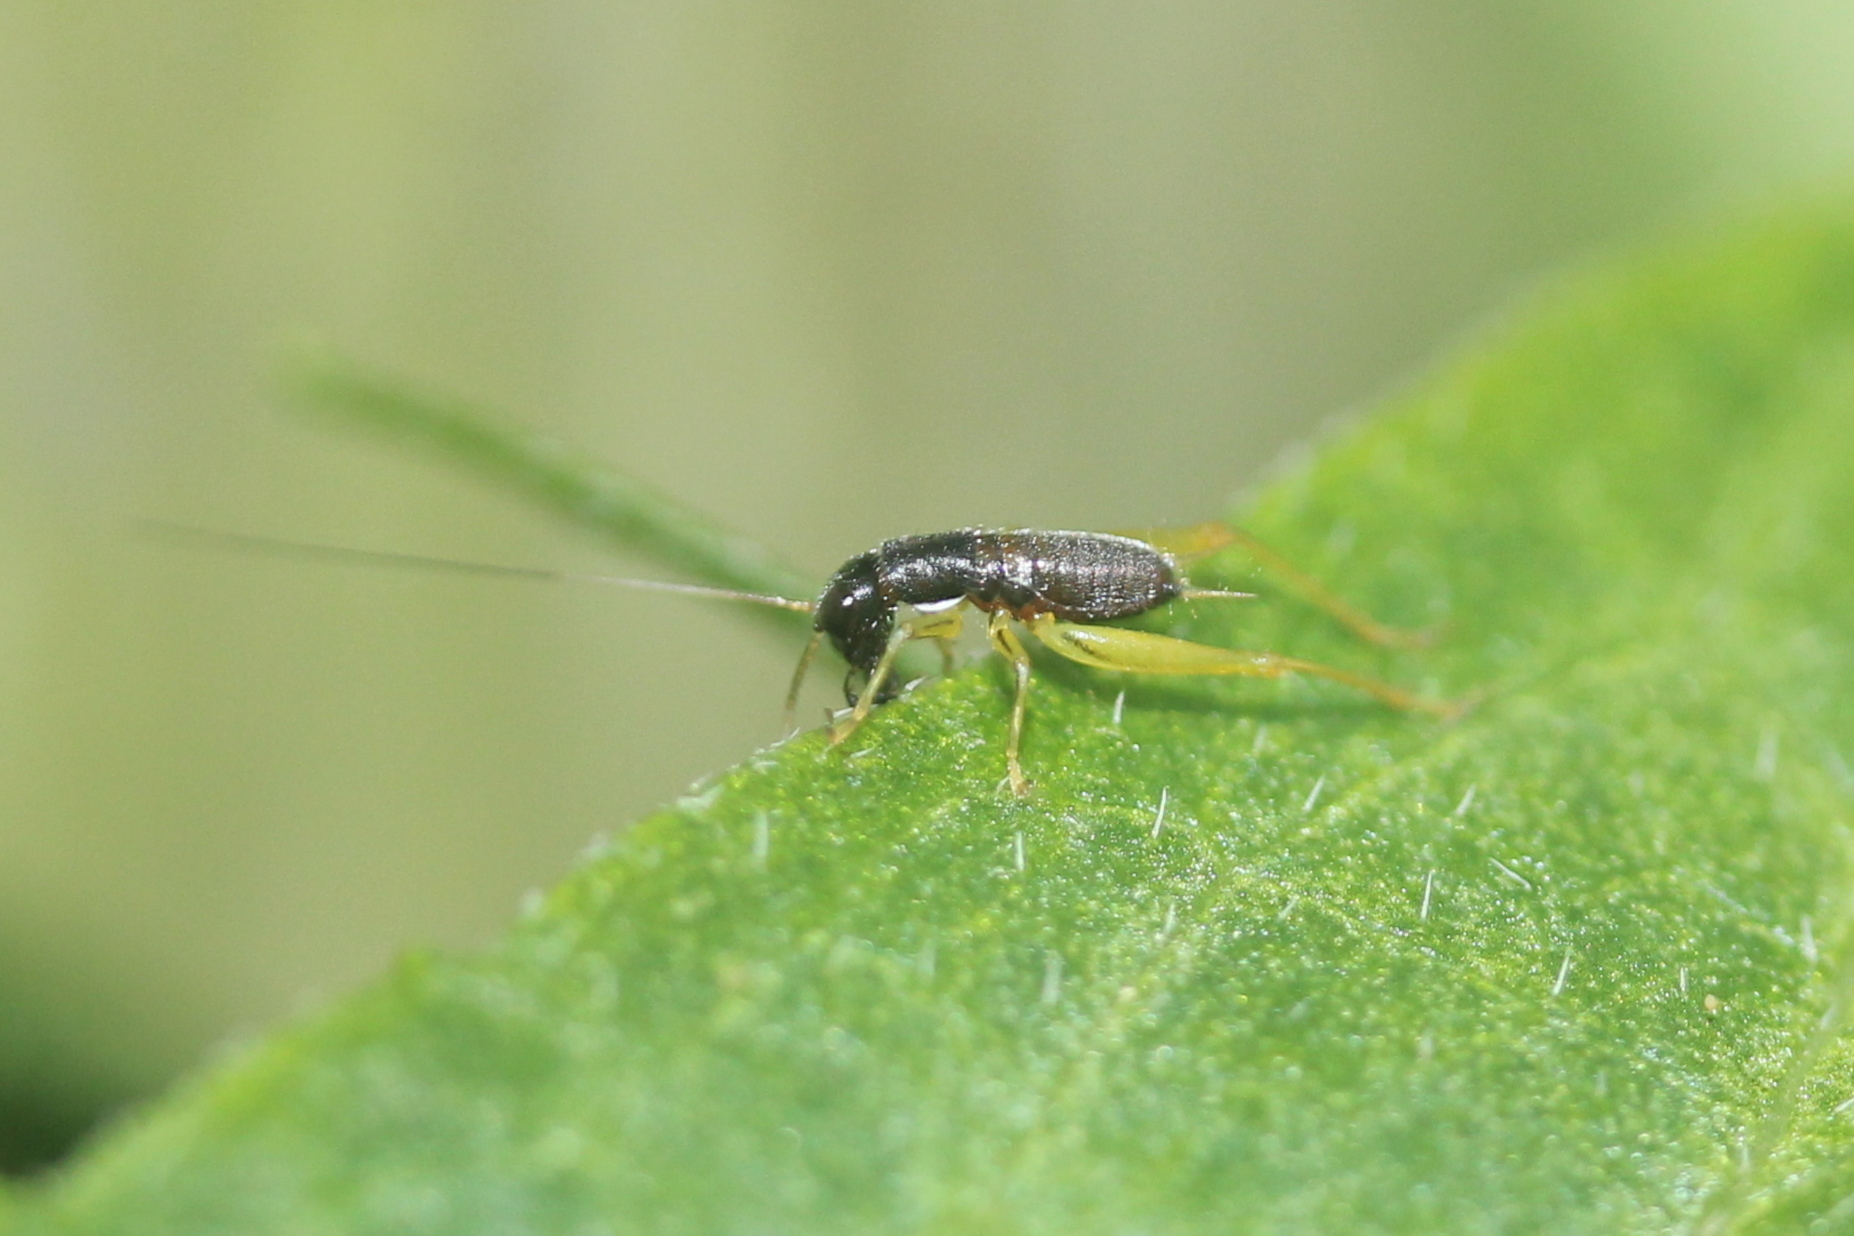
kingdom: Animalia
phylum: Arthropoda
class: Insecta
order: Orthoptera
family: Trigonidiidae
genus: Phyllopalpus
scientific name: Phyllopalpus pulchellus
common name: Handsome trig
